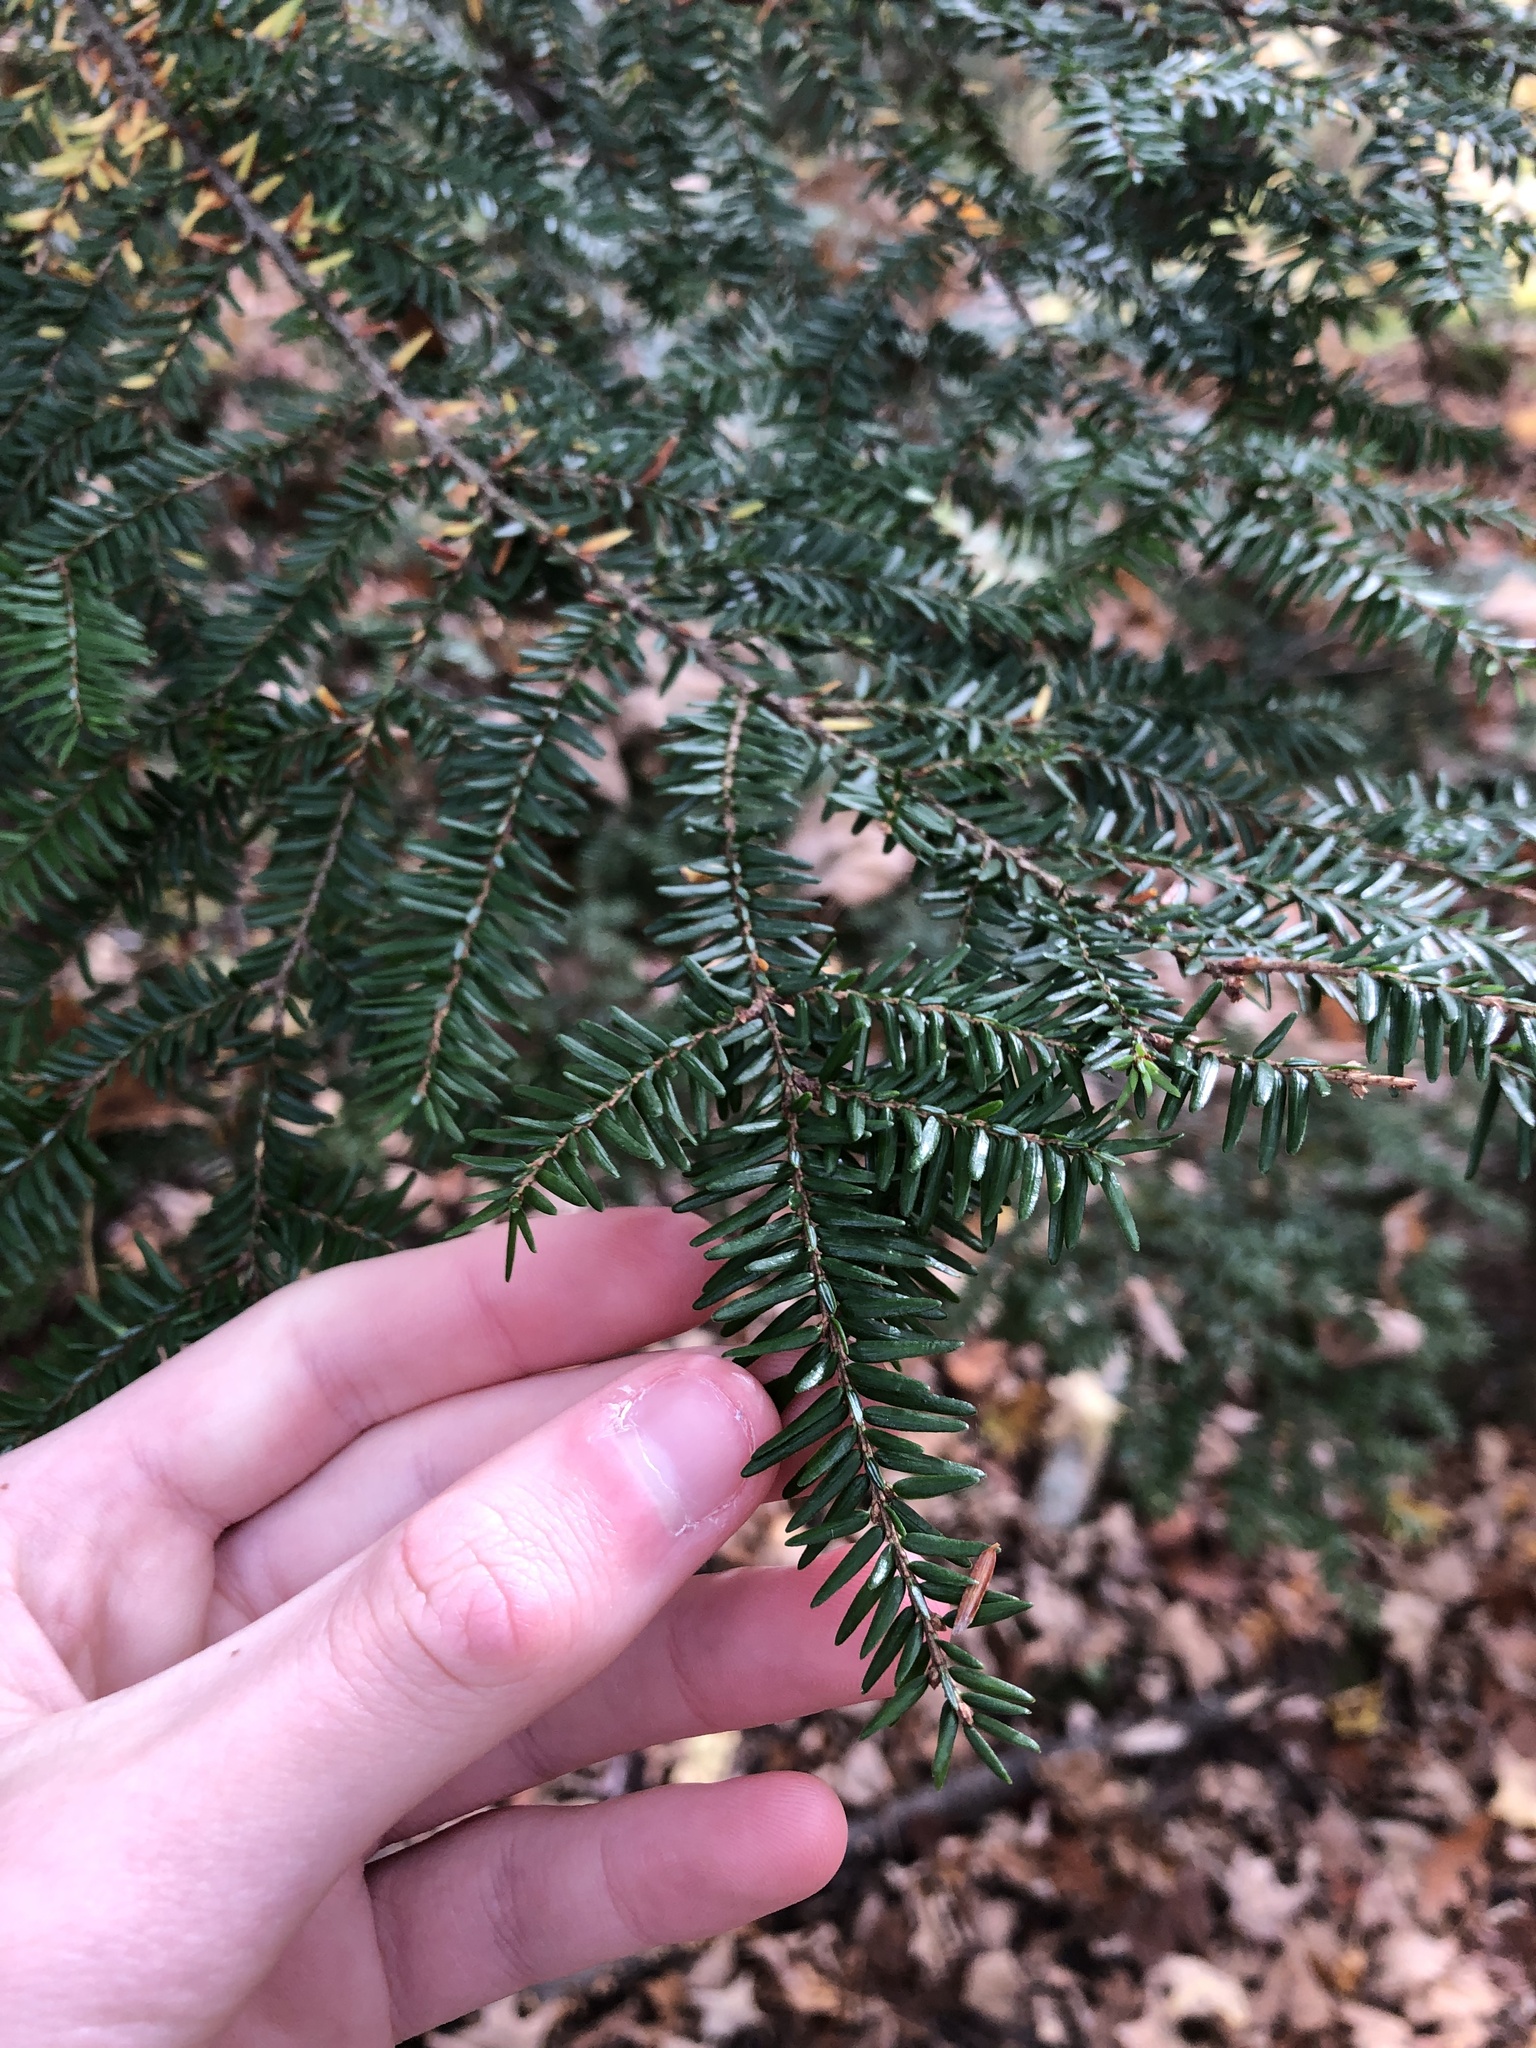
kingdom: Plantae
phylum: Tracheophyta
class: Pinopsida
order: Pinales
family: Pinaceae
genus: Tsuga
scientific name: Tsuga canadensis
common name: Eastern hemlock
